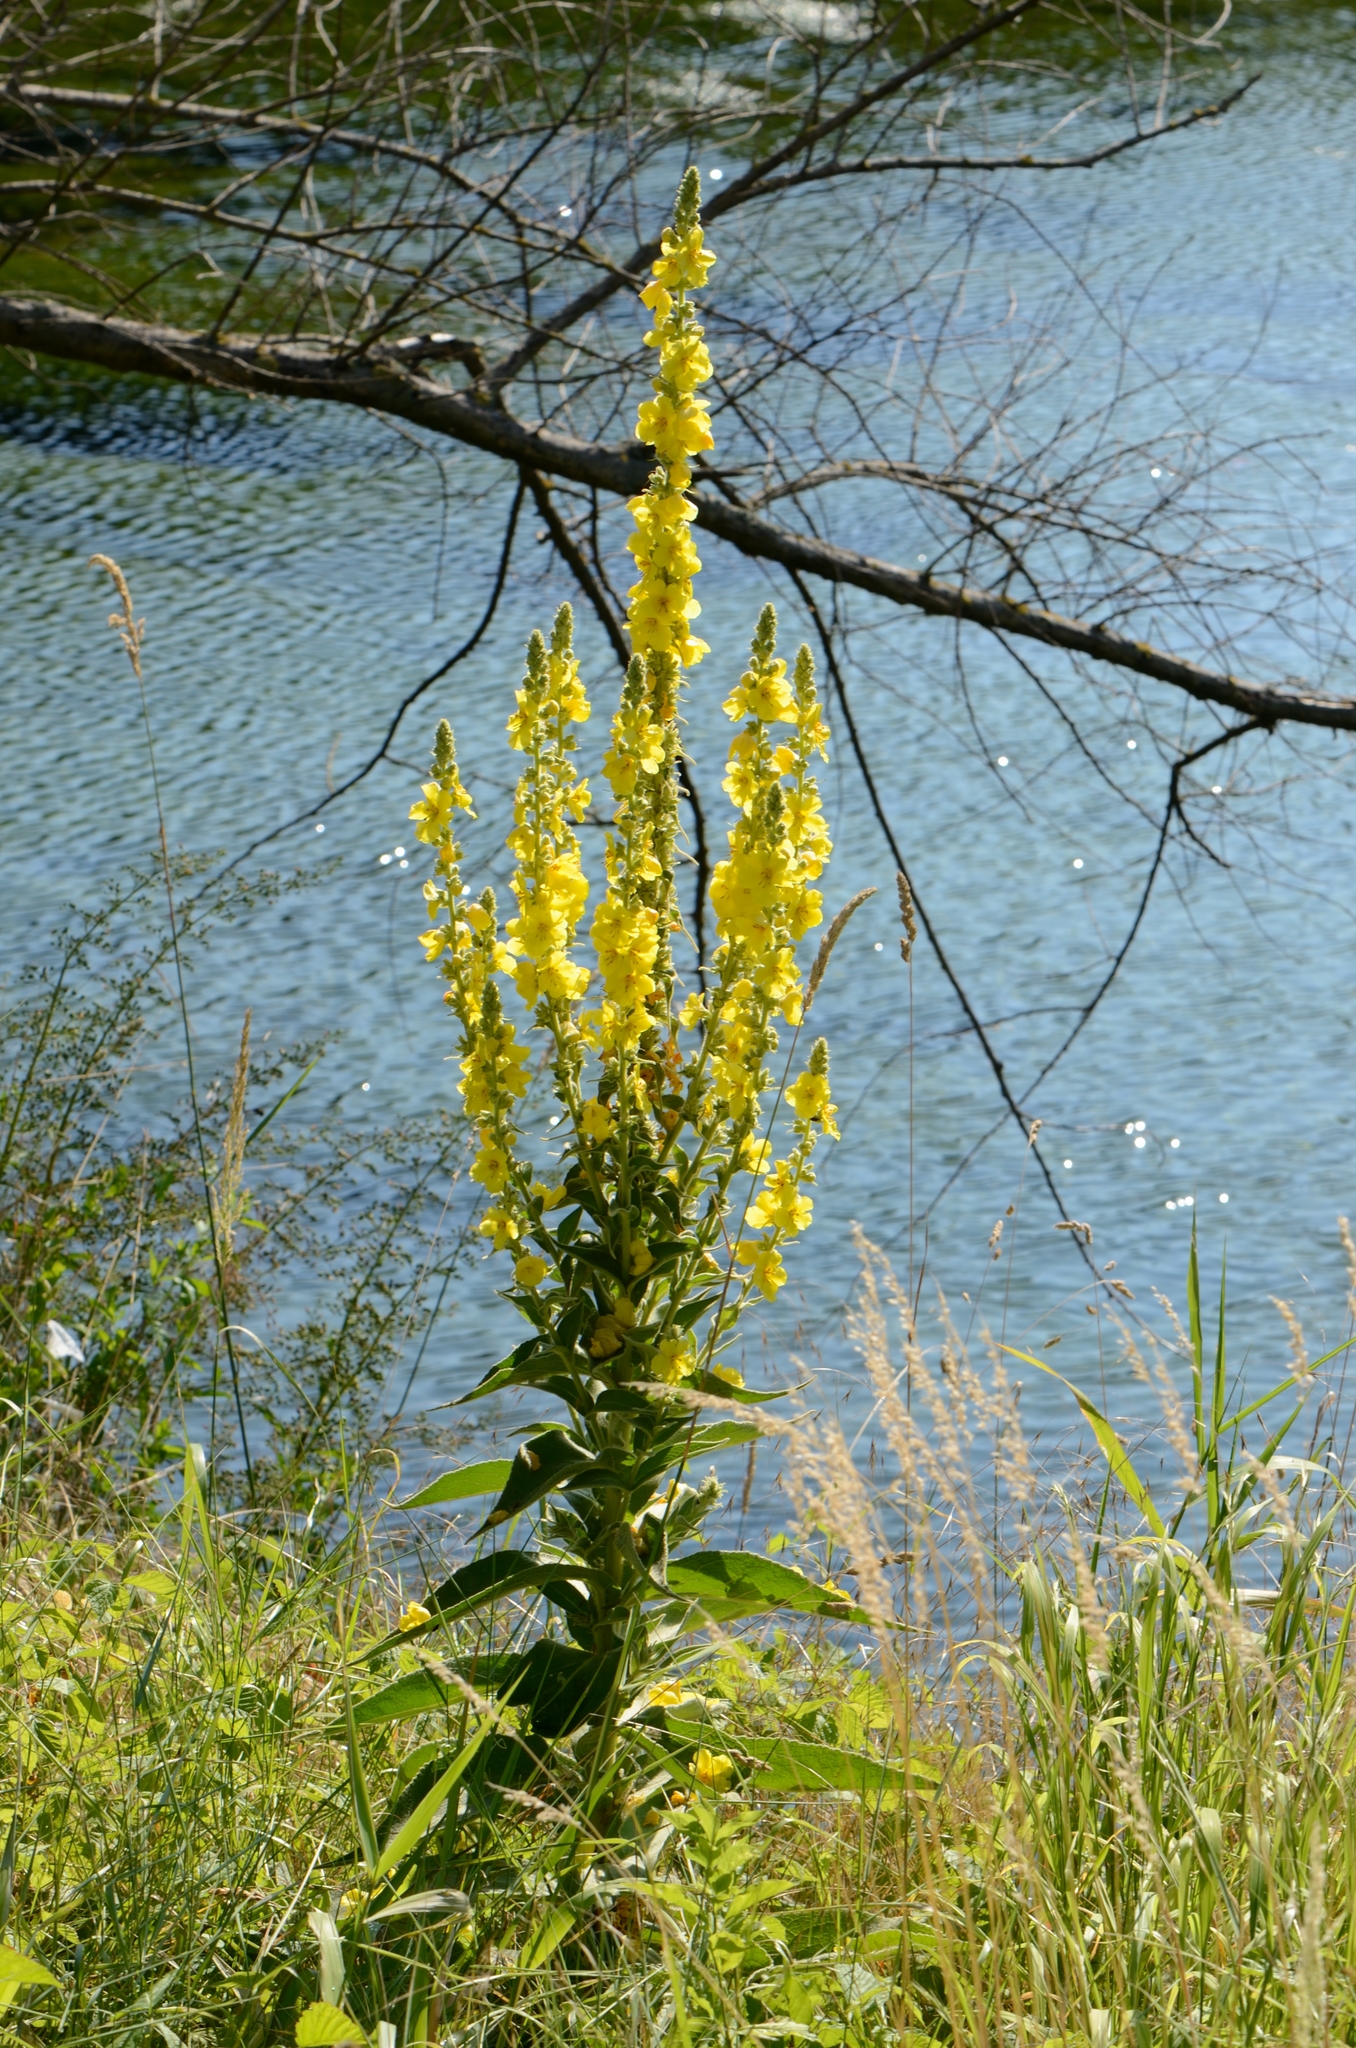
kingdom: Plantae
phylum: Tracheophyta
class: Magnoliopsida
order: Lamiales
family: Scrophulariaceae
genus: Verbascum
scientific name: Verbascum densiflorum
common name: Dense-flowered mullein
